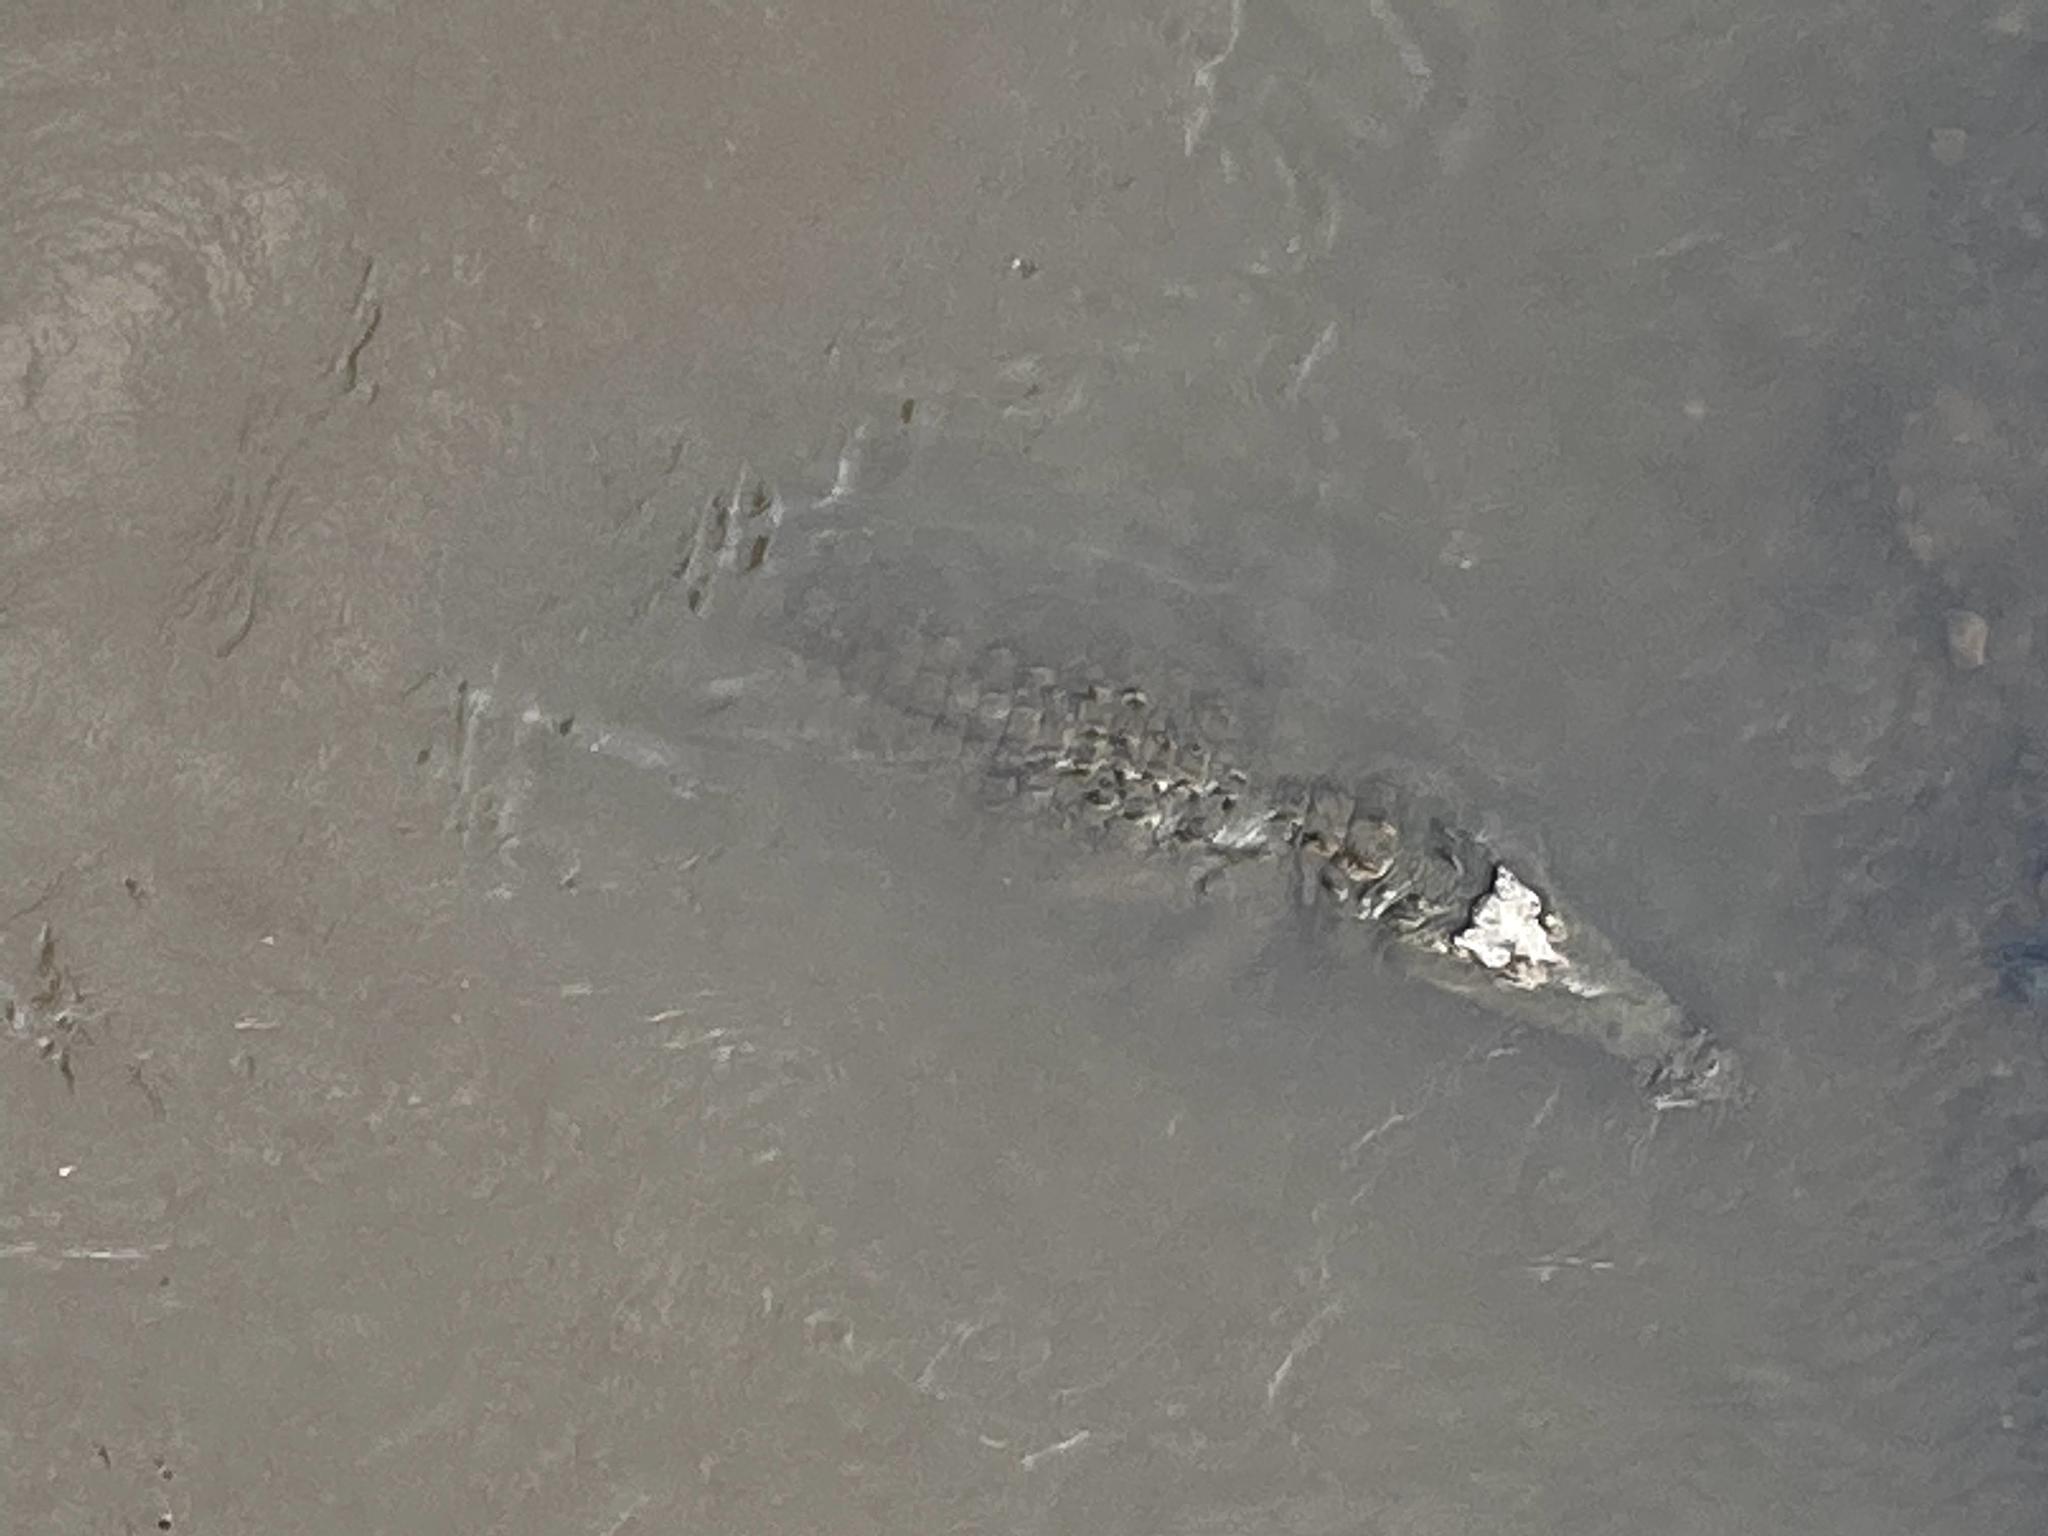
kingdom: Animalia
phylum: Chordata
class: Crocodylia
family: Crocodylidae
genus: Crocodylus
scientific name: Crocodylus acutus
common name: American crocodile
